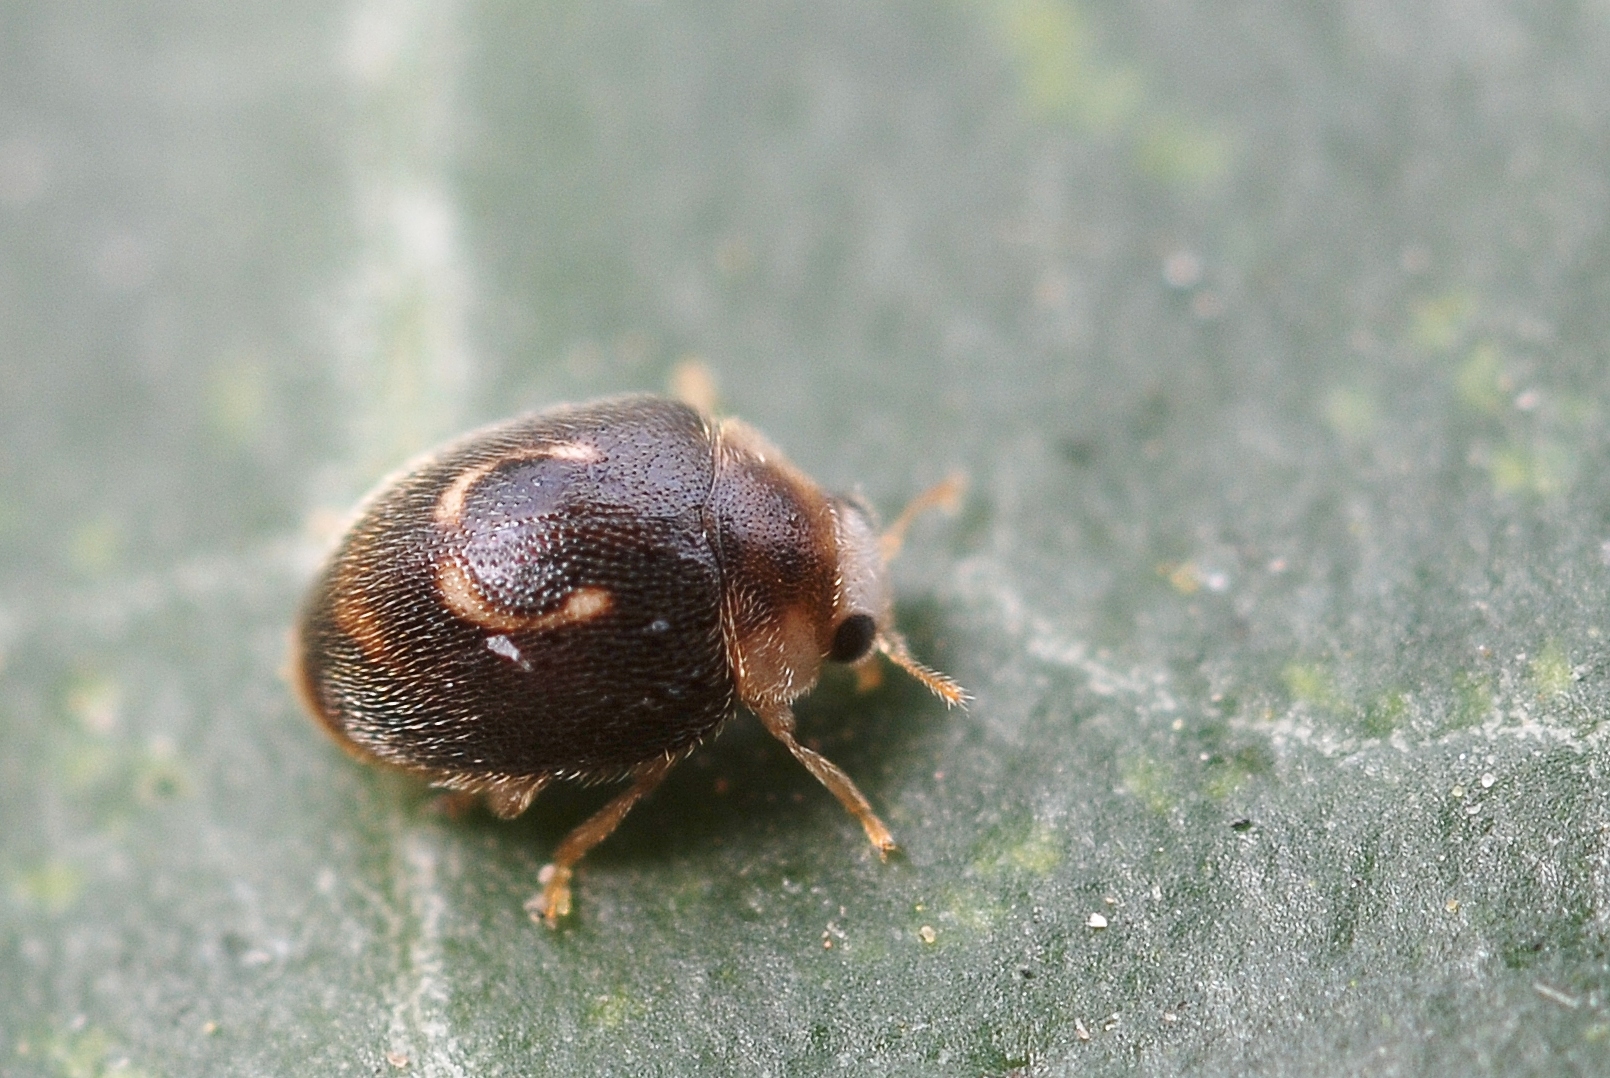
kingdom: Animalia
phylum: Arthropoda
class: Insecta
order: Coleoptera
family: Coccinellidae
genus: Clitostethus
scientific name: Clitostethus arcuatus
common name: Ladybird beetle
